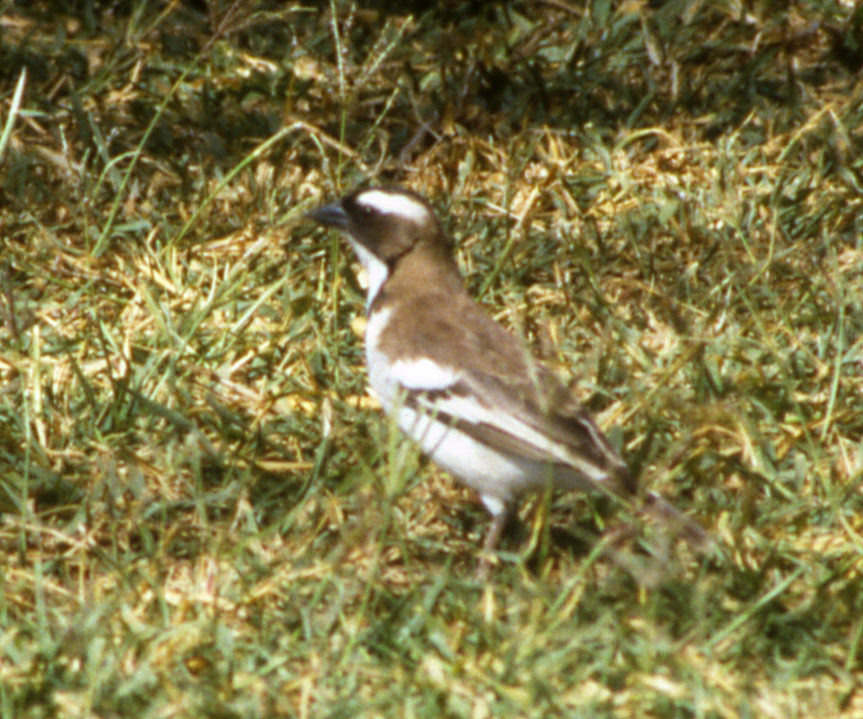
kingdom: Animalia
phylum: Chordata
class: Aves
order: Passeriformes
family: Passeridae
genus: Plocepasser
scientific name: Plocepasser mahali
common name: White-browed sparrow-weaver
